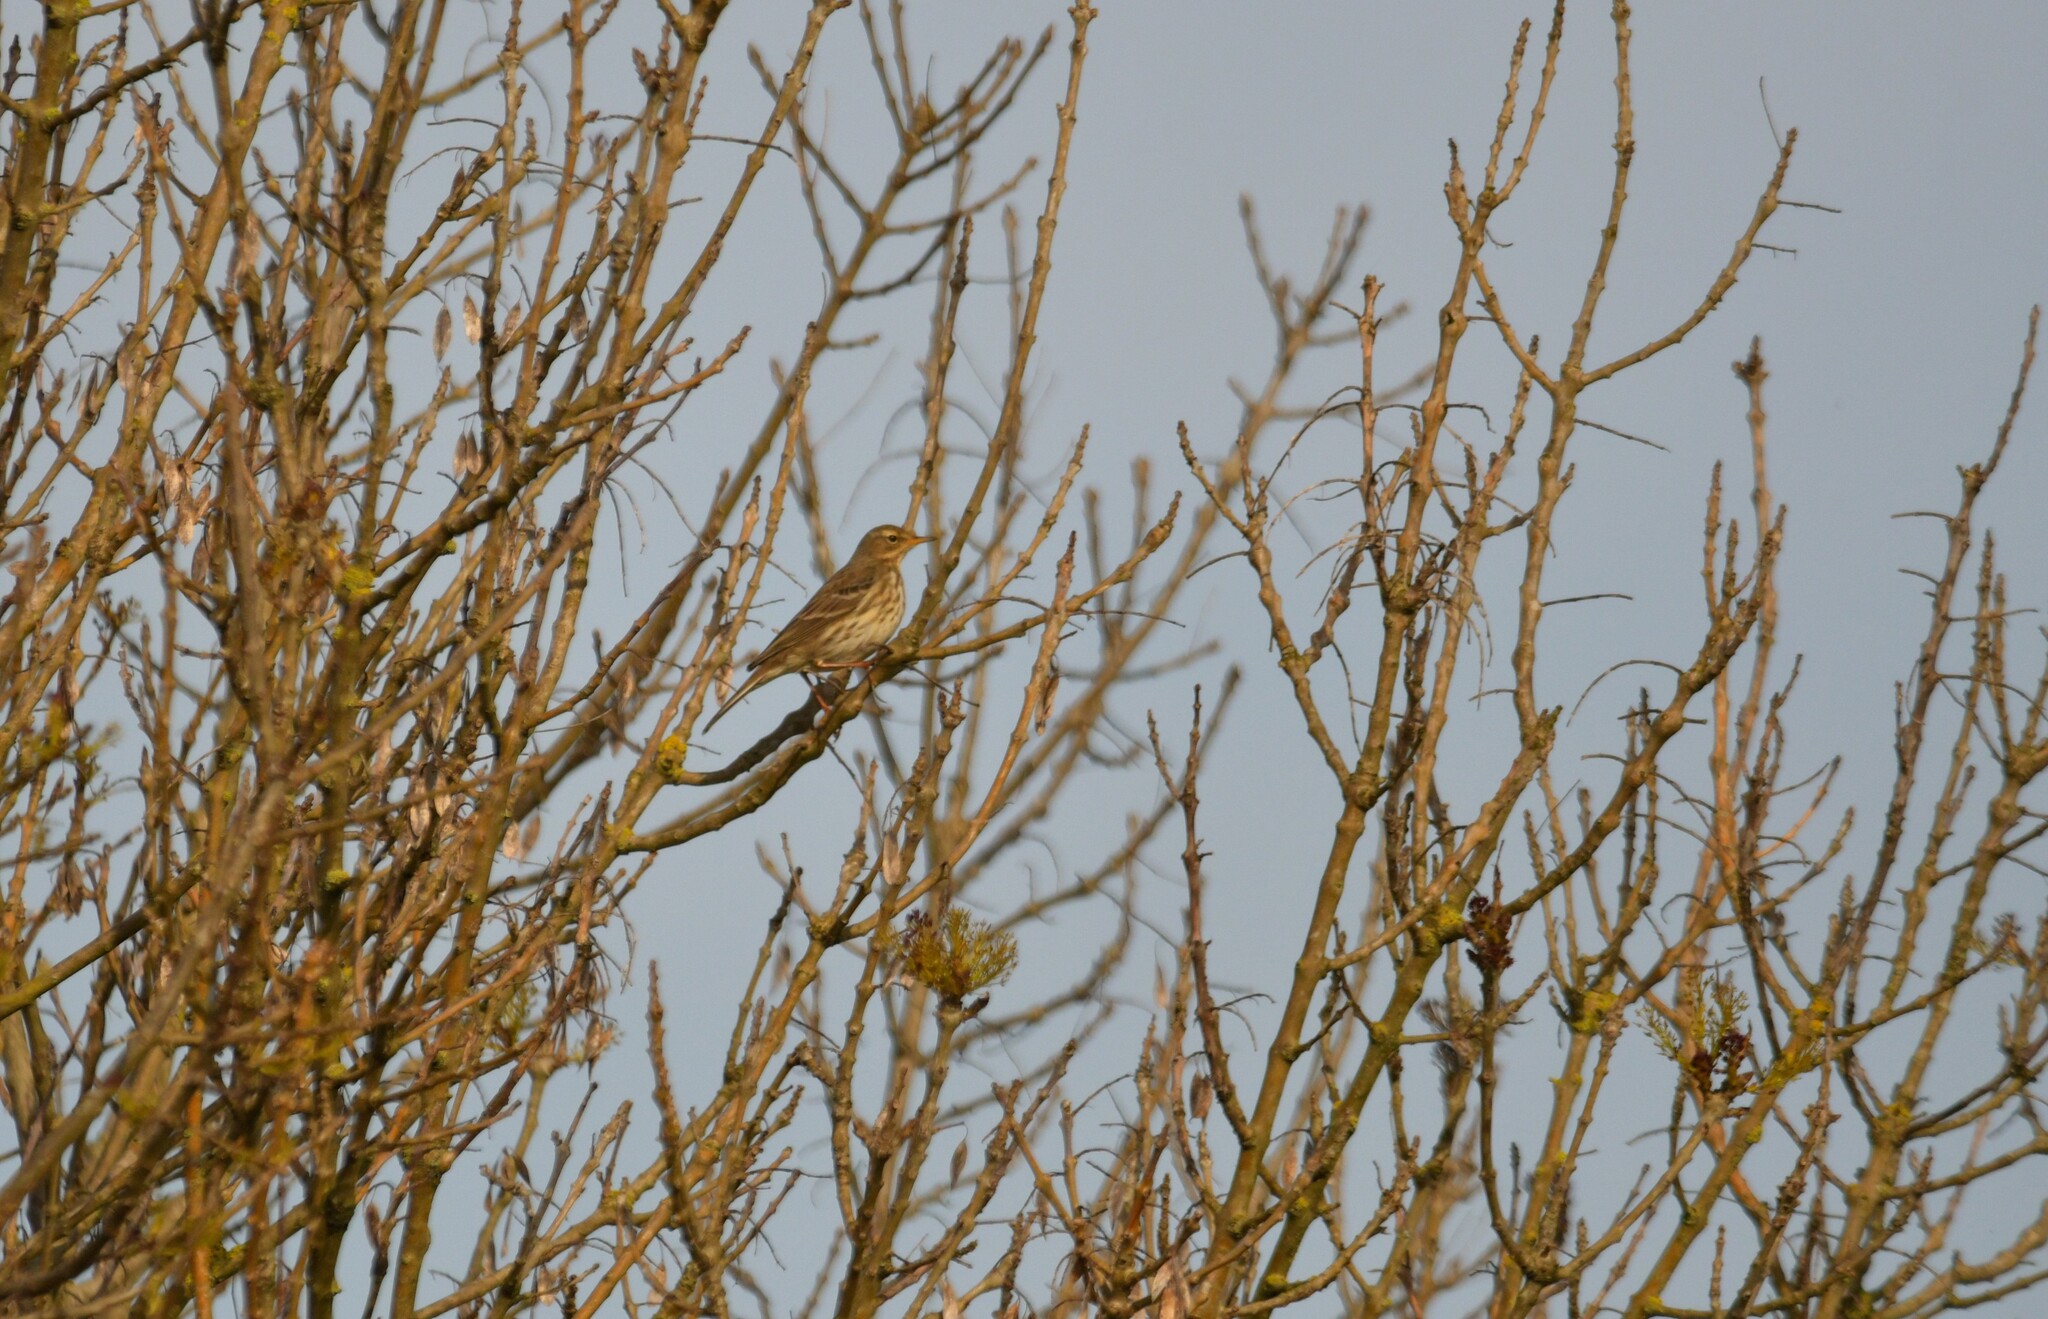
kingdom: Animalia
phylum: Chordata
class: Aves
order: Passeriformes
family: Motacillidae
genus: Anthus
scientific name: Anthus pratensis
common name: Meadow pipit
